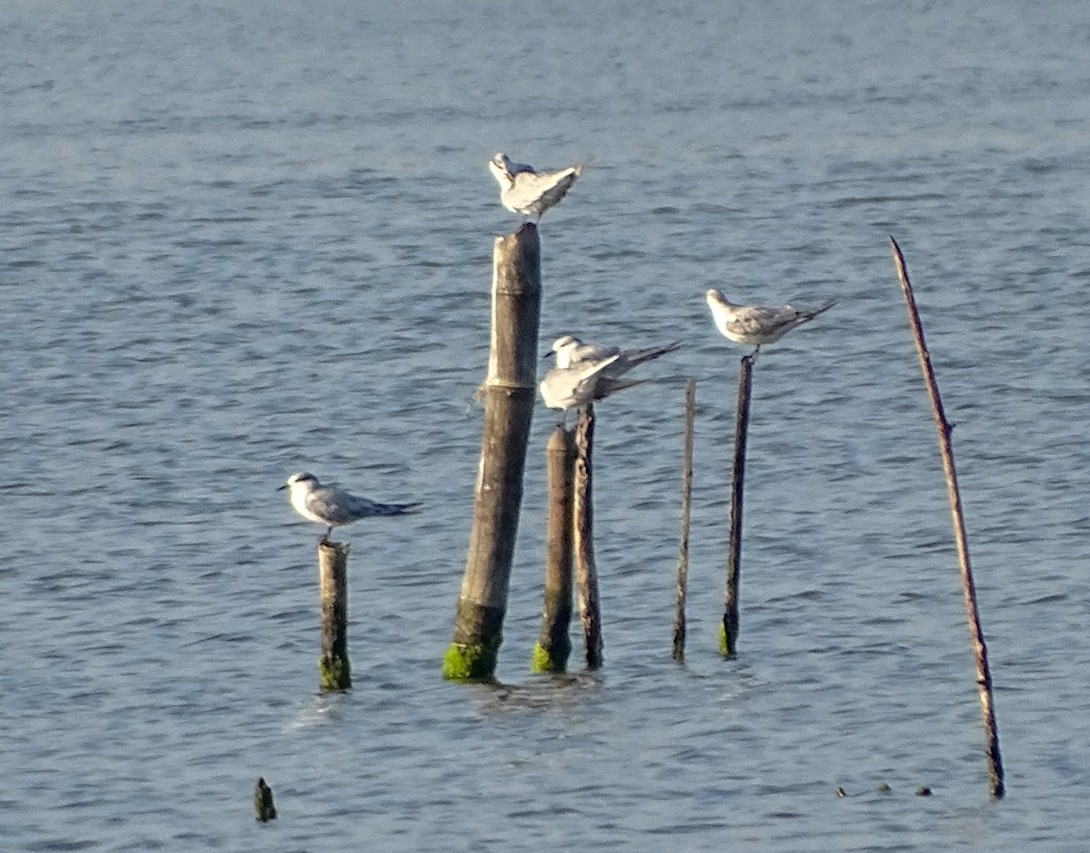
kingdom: Animalia
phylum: Chordata
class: Aves
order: Charadriiformes
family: Laridae
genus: Chlidonias
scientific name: Chlidonias hybrida
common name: Whiskered tern
